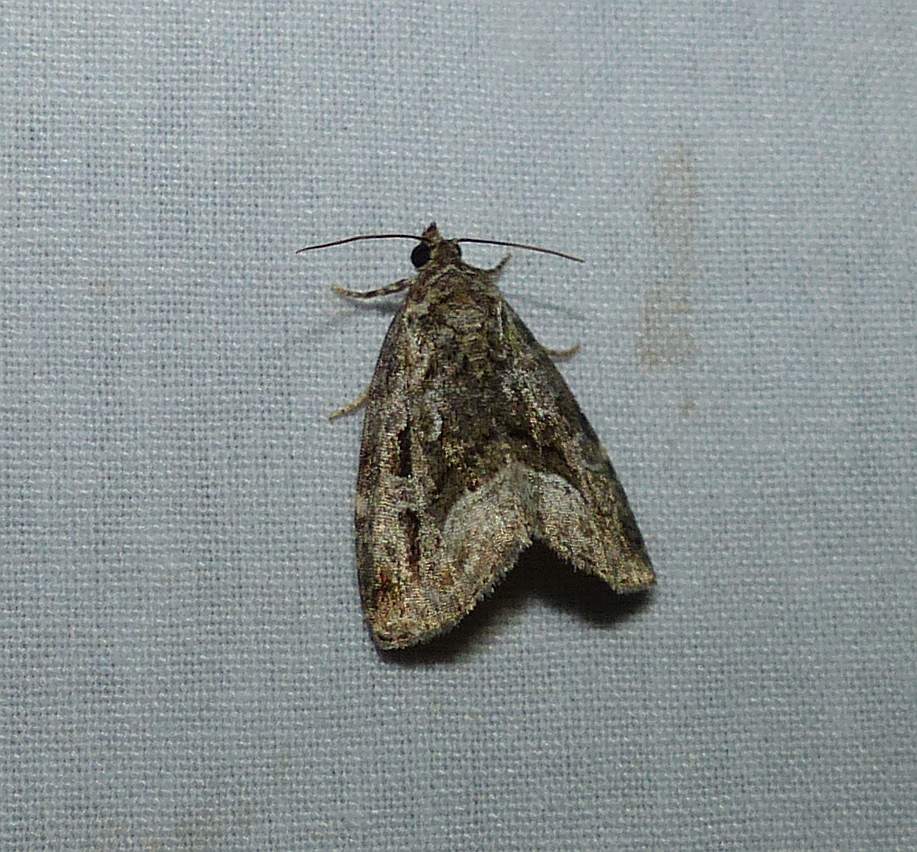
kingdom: Animalia
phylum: Arthropoda
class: Insecta
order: Lepidoptera
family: Noctuidae
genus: Protodeltote
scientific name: Protodeltote muscosula
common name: Large mossy glyph
